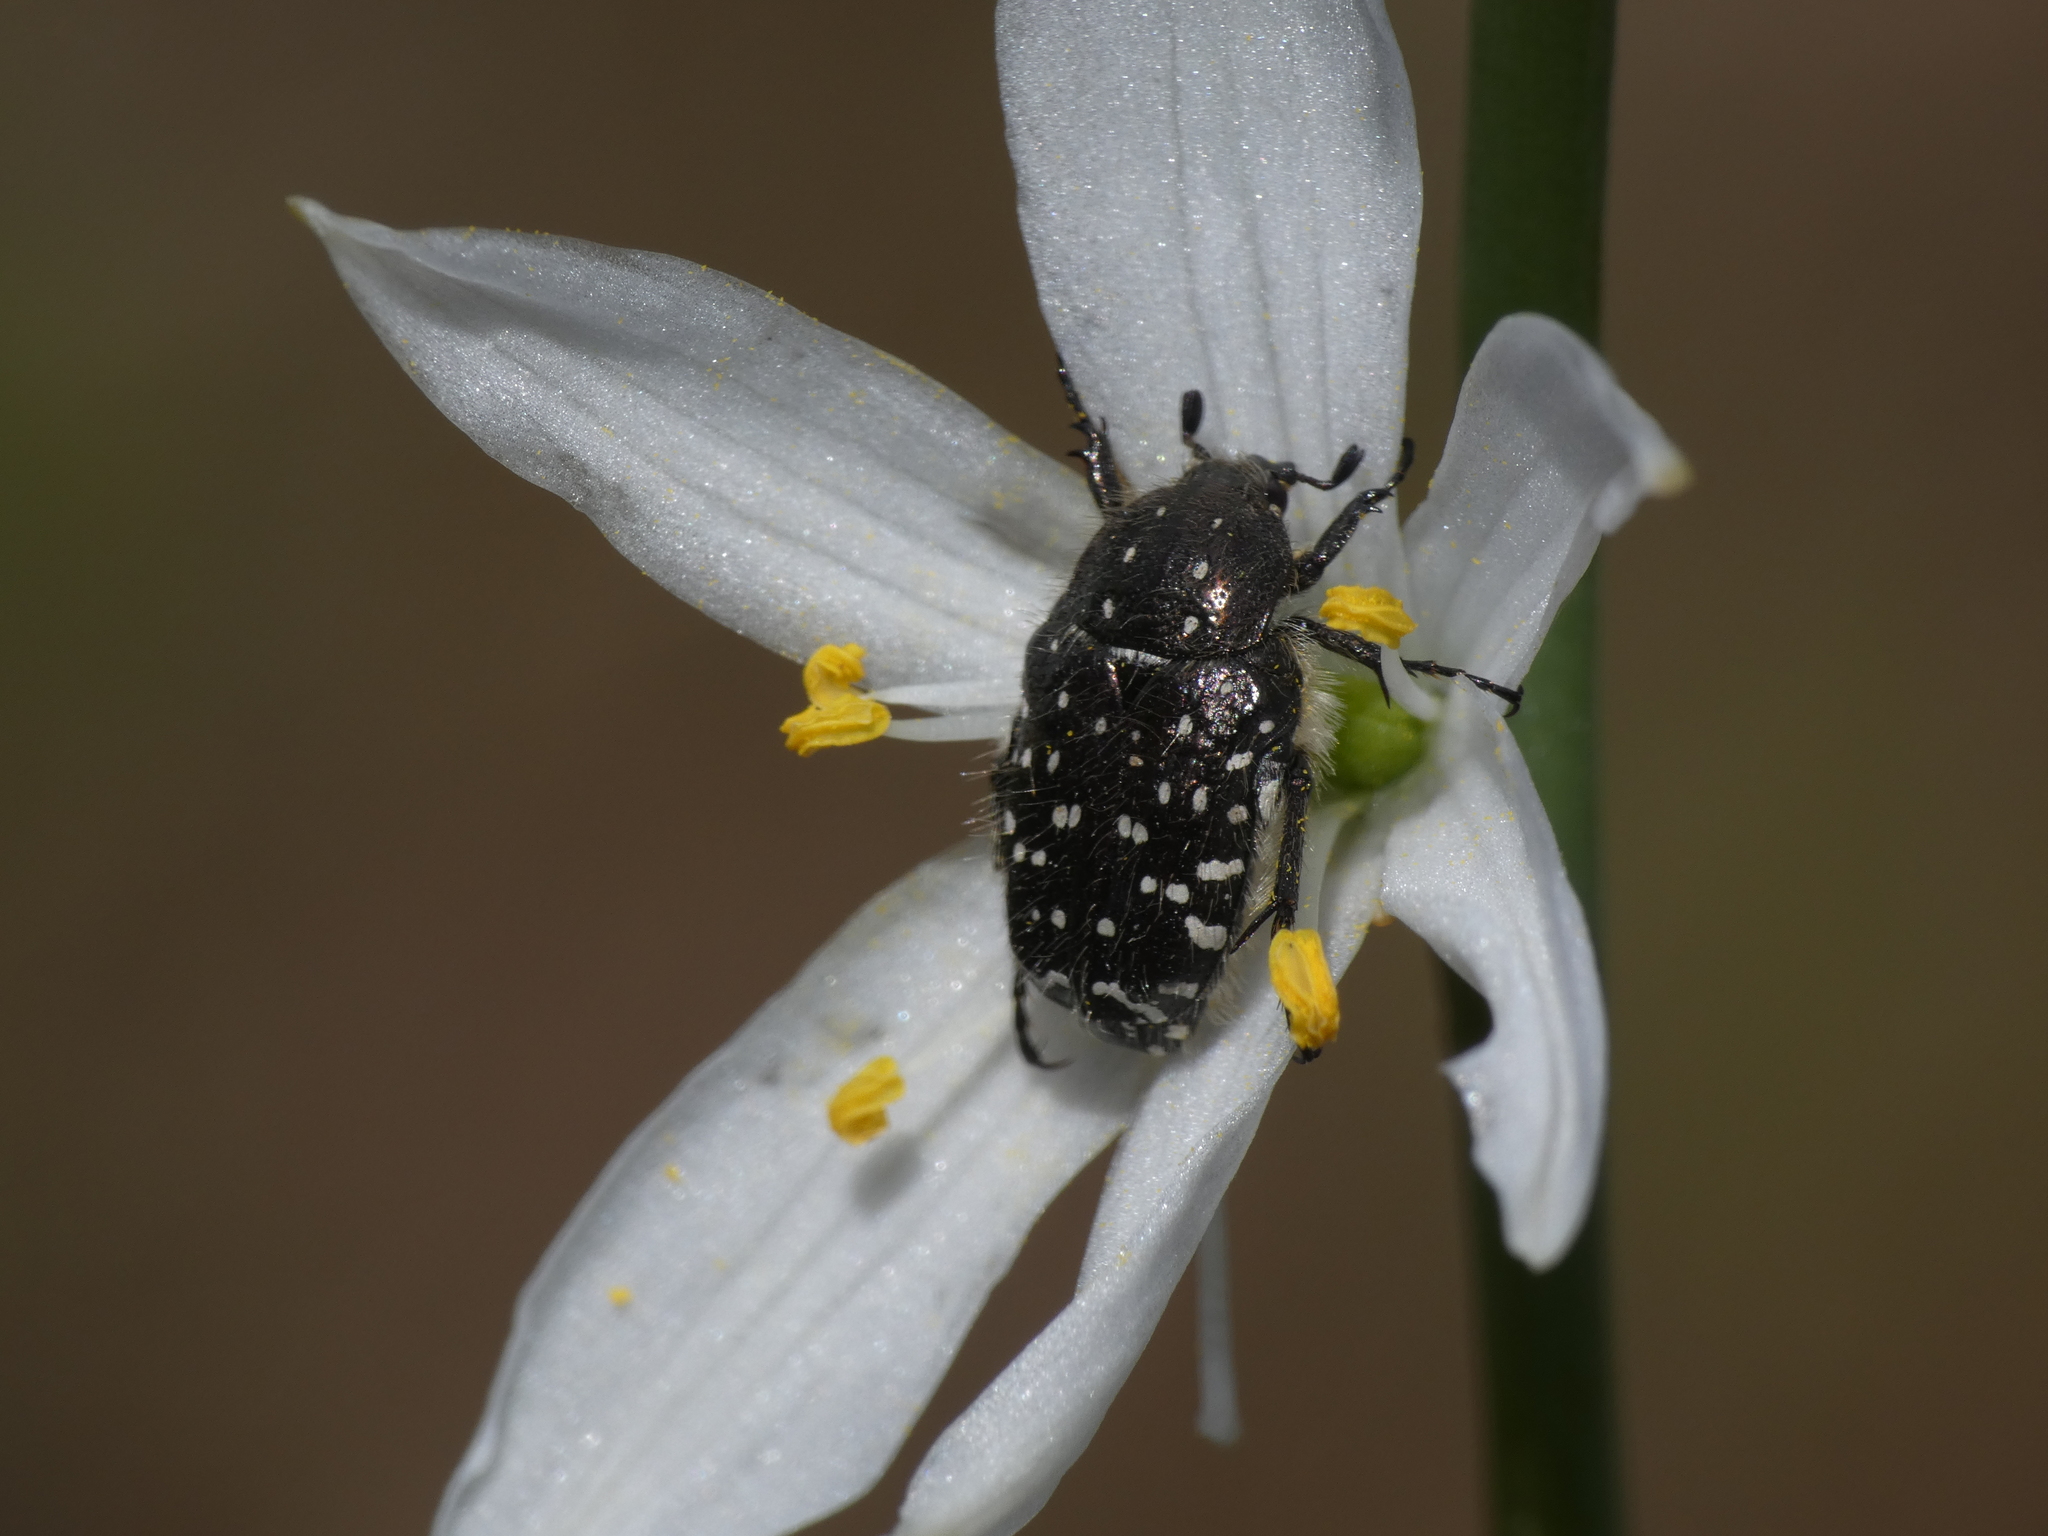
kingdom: Animalia
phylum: Arthropoda
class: Insecta
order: Coleoptera
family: Scarabaeidae
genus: Oxythyrea
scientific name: Oxythyrea funesta
